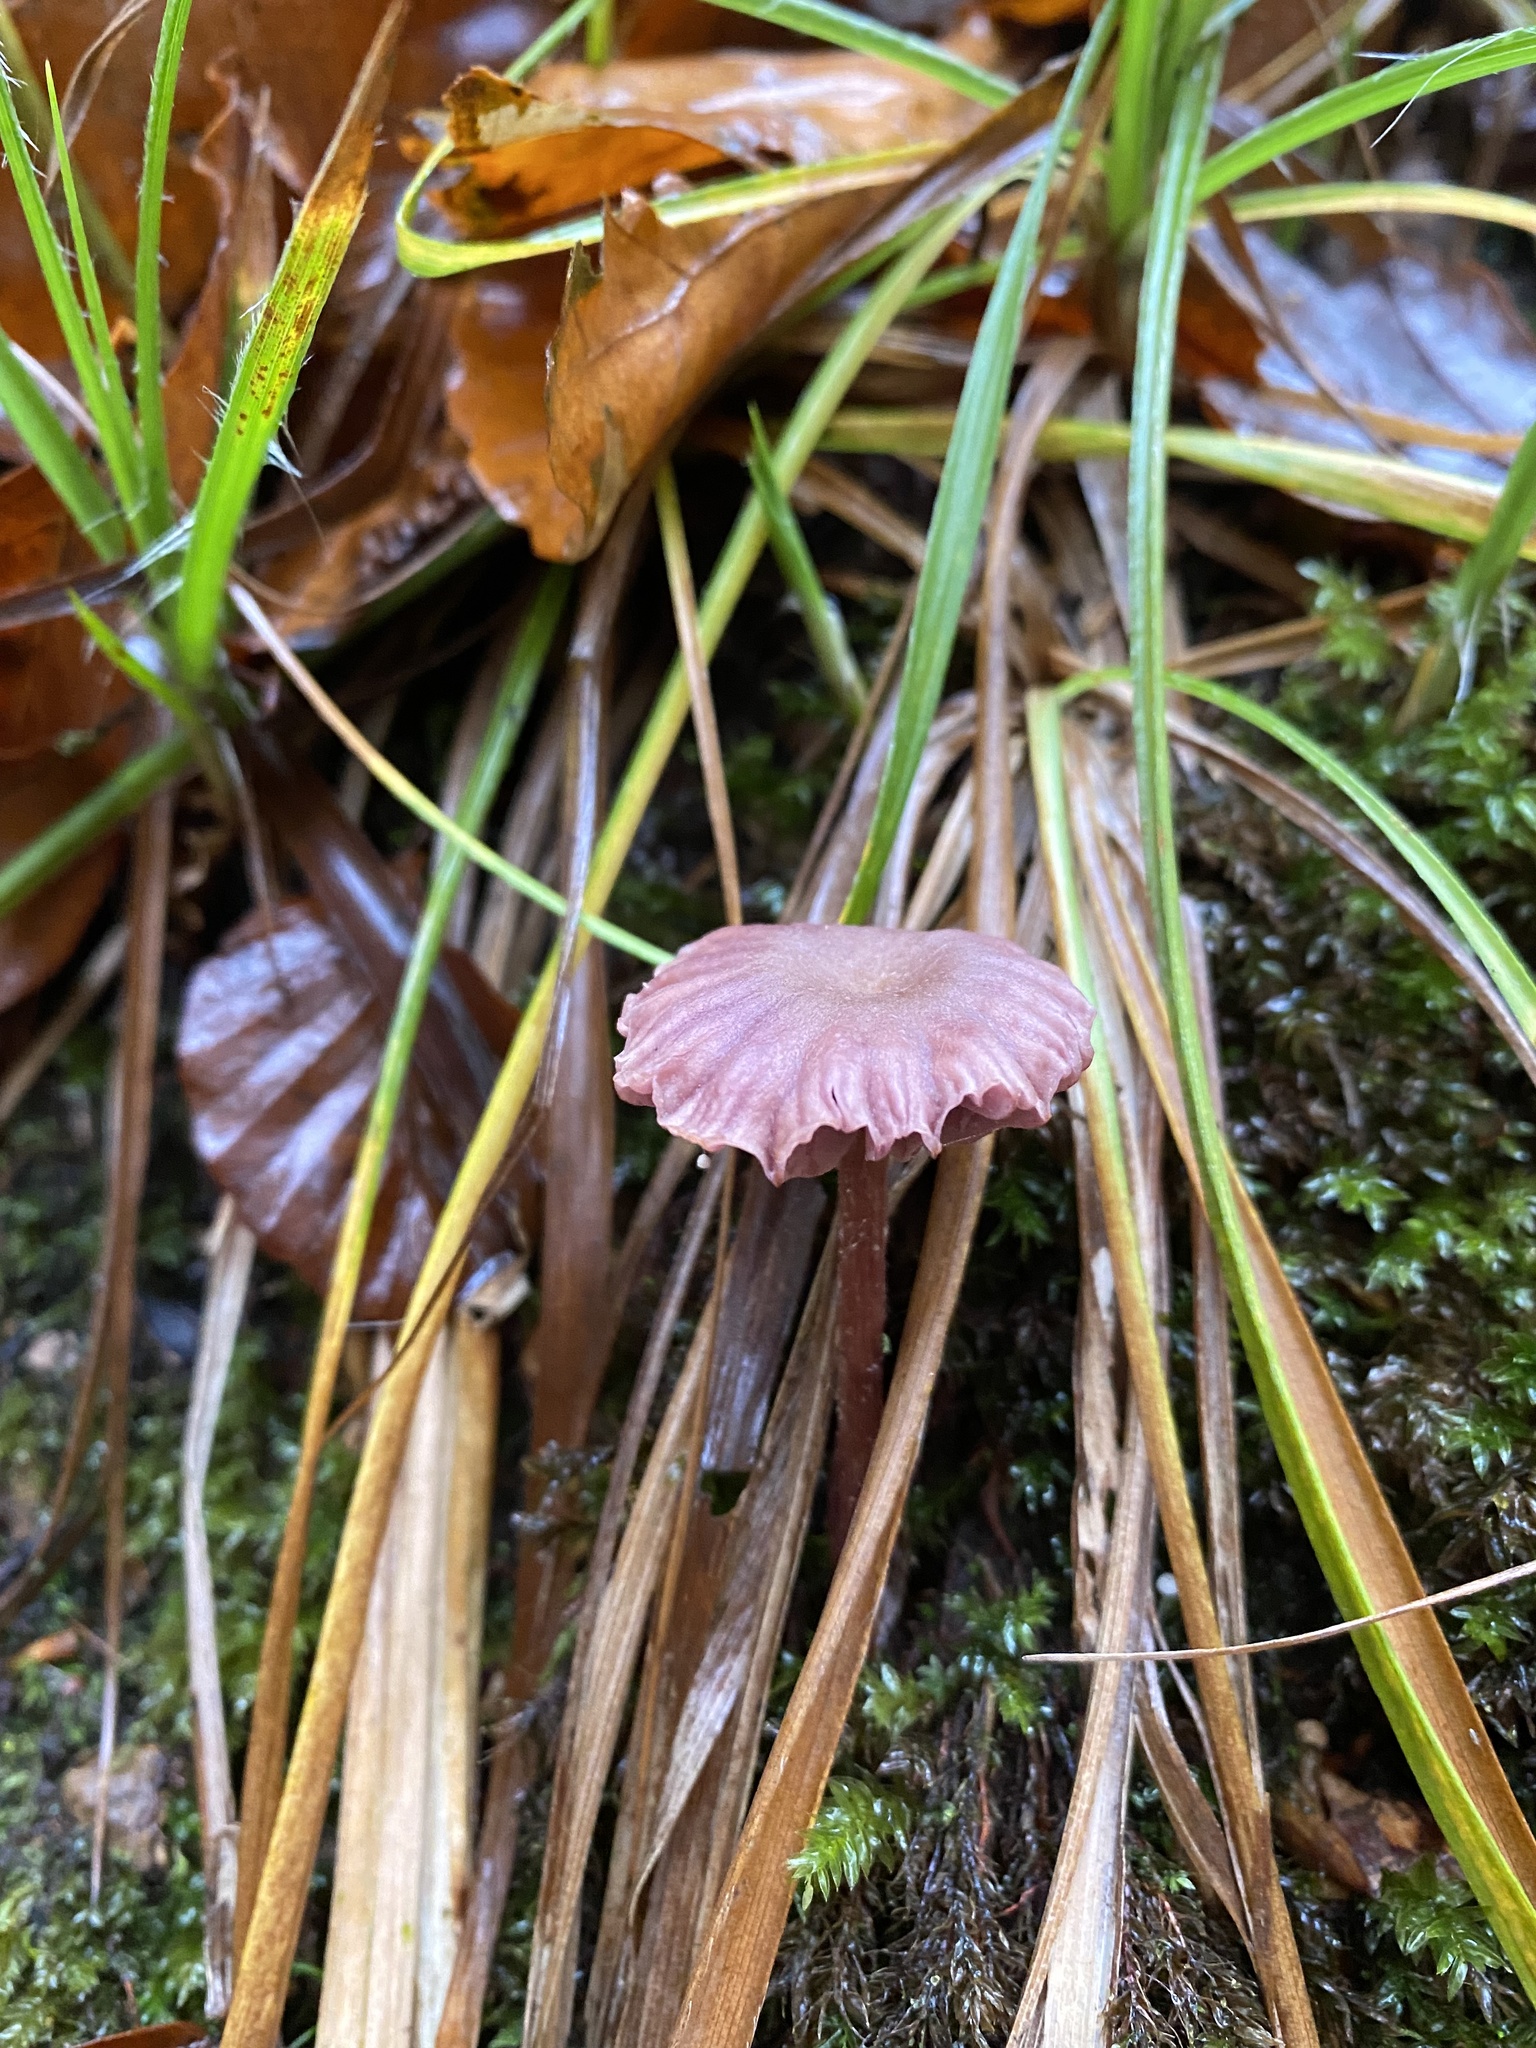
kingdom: Fungi
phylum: Basidiomycota
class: Agaricomycetes
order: Agaricales
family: Hydnangiaceae
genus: Laccaria
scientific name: Laccaria amethystina
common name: Amethyst deceiver
